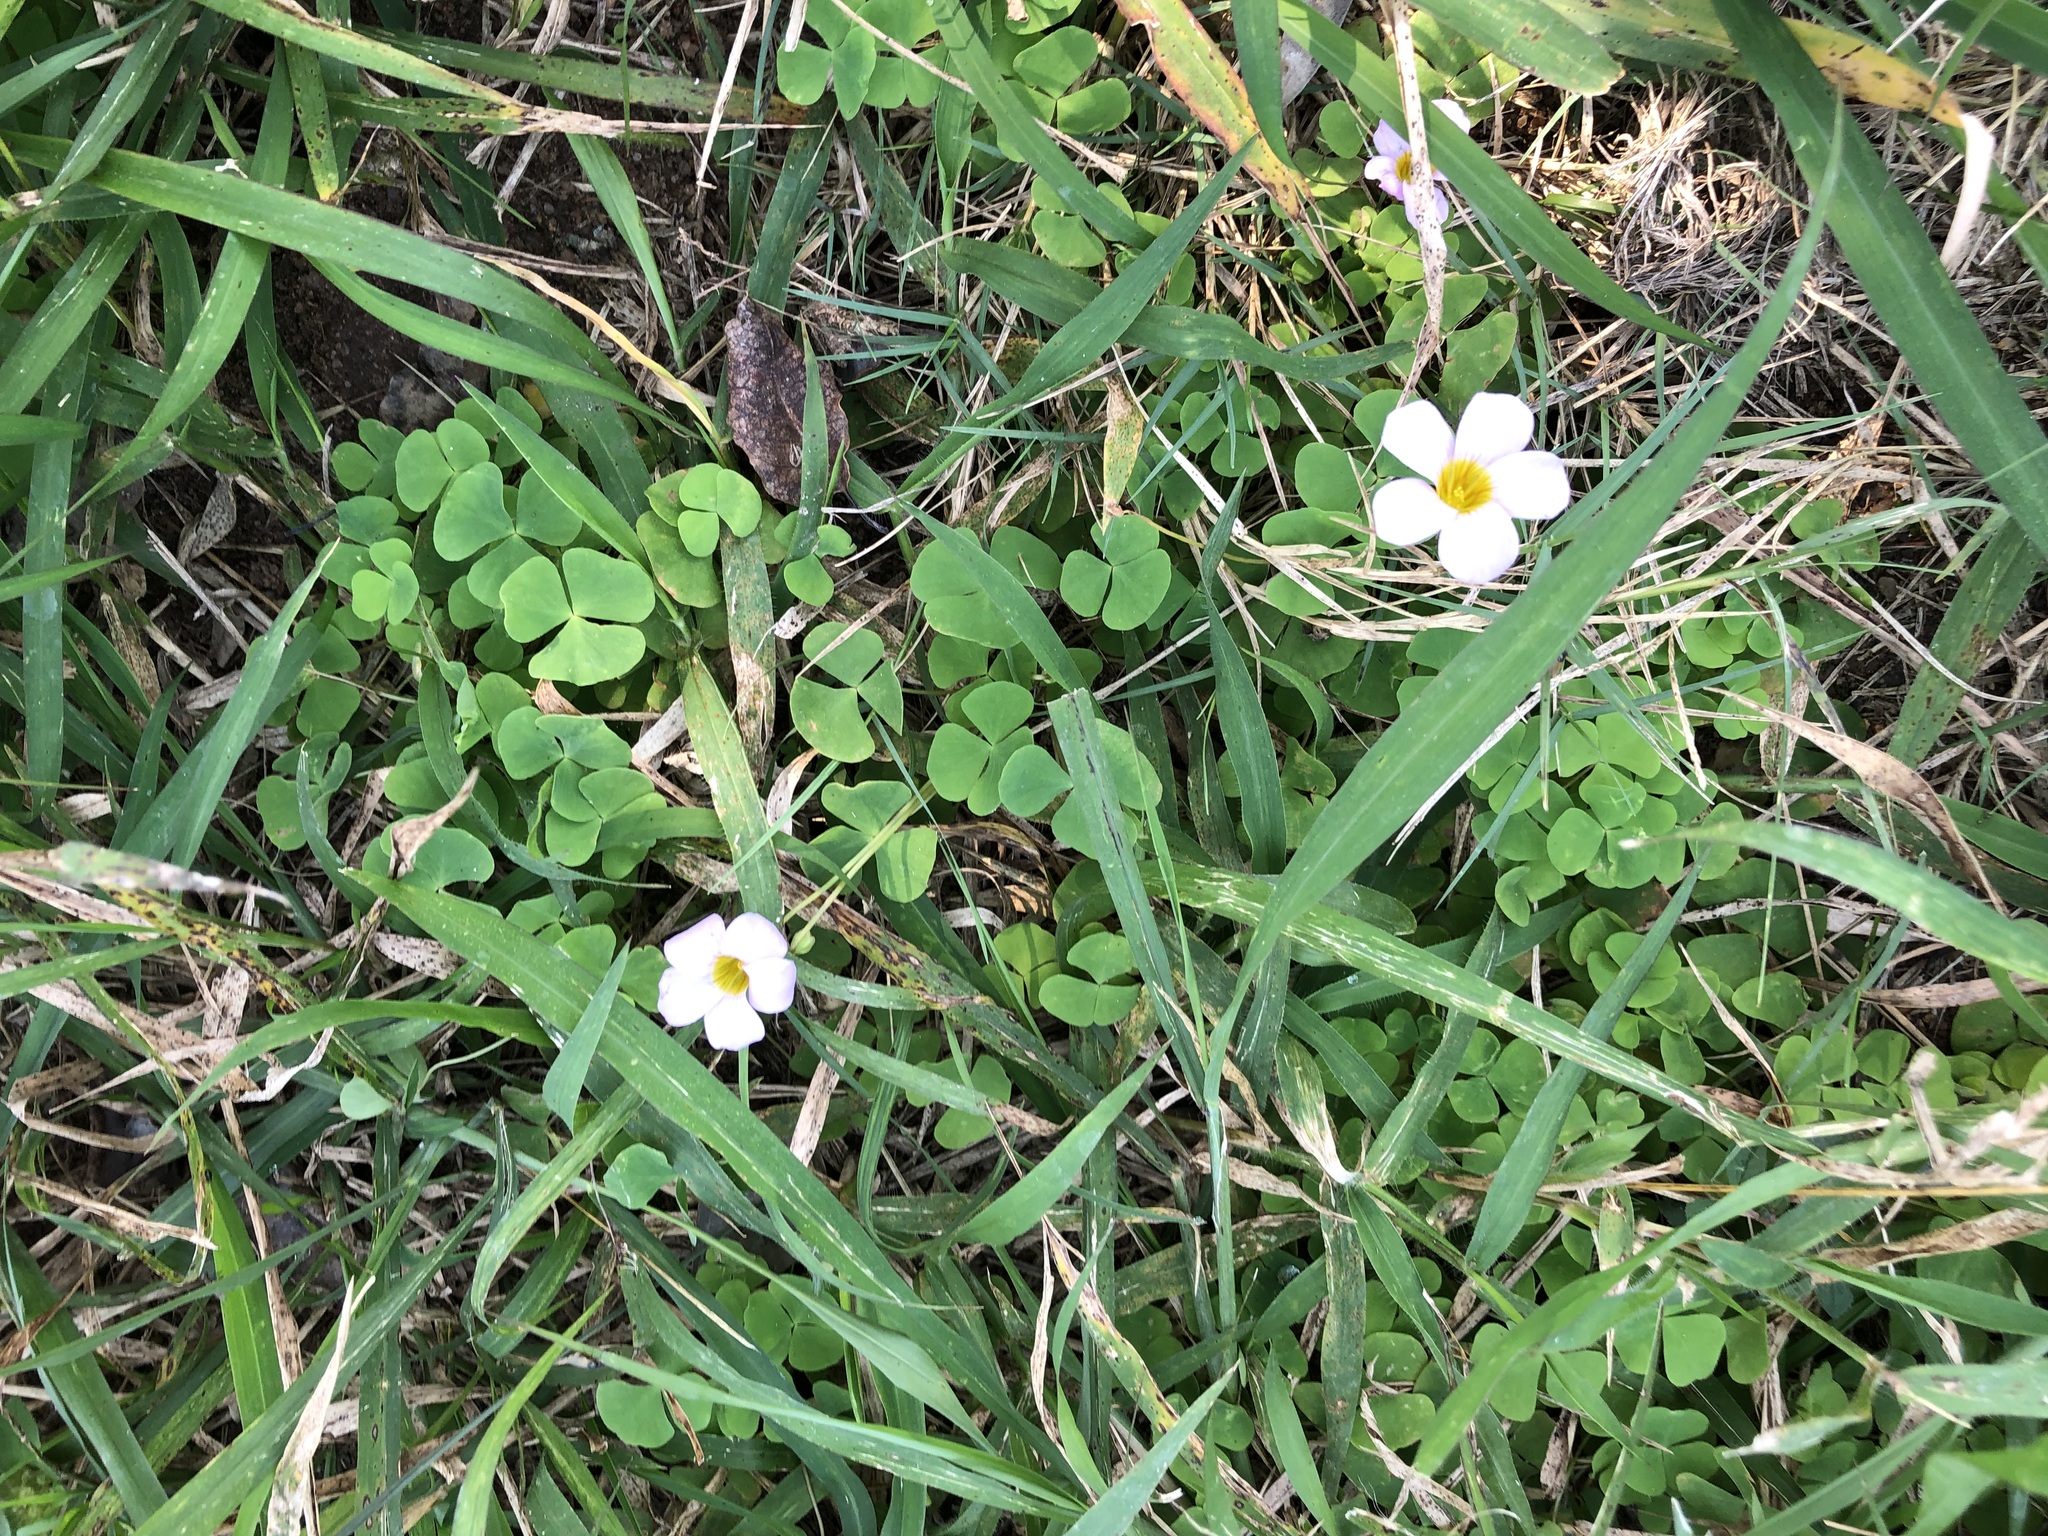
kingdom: Plantae
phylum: Tracheophyta
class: Magnoliopsida
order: Oxalidales
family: Oxalidaceae
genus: Oxalis
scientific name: Oxalis obliquifolia
